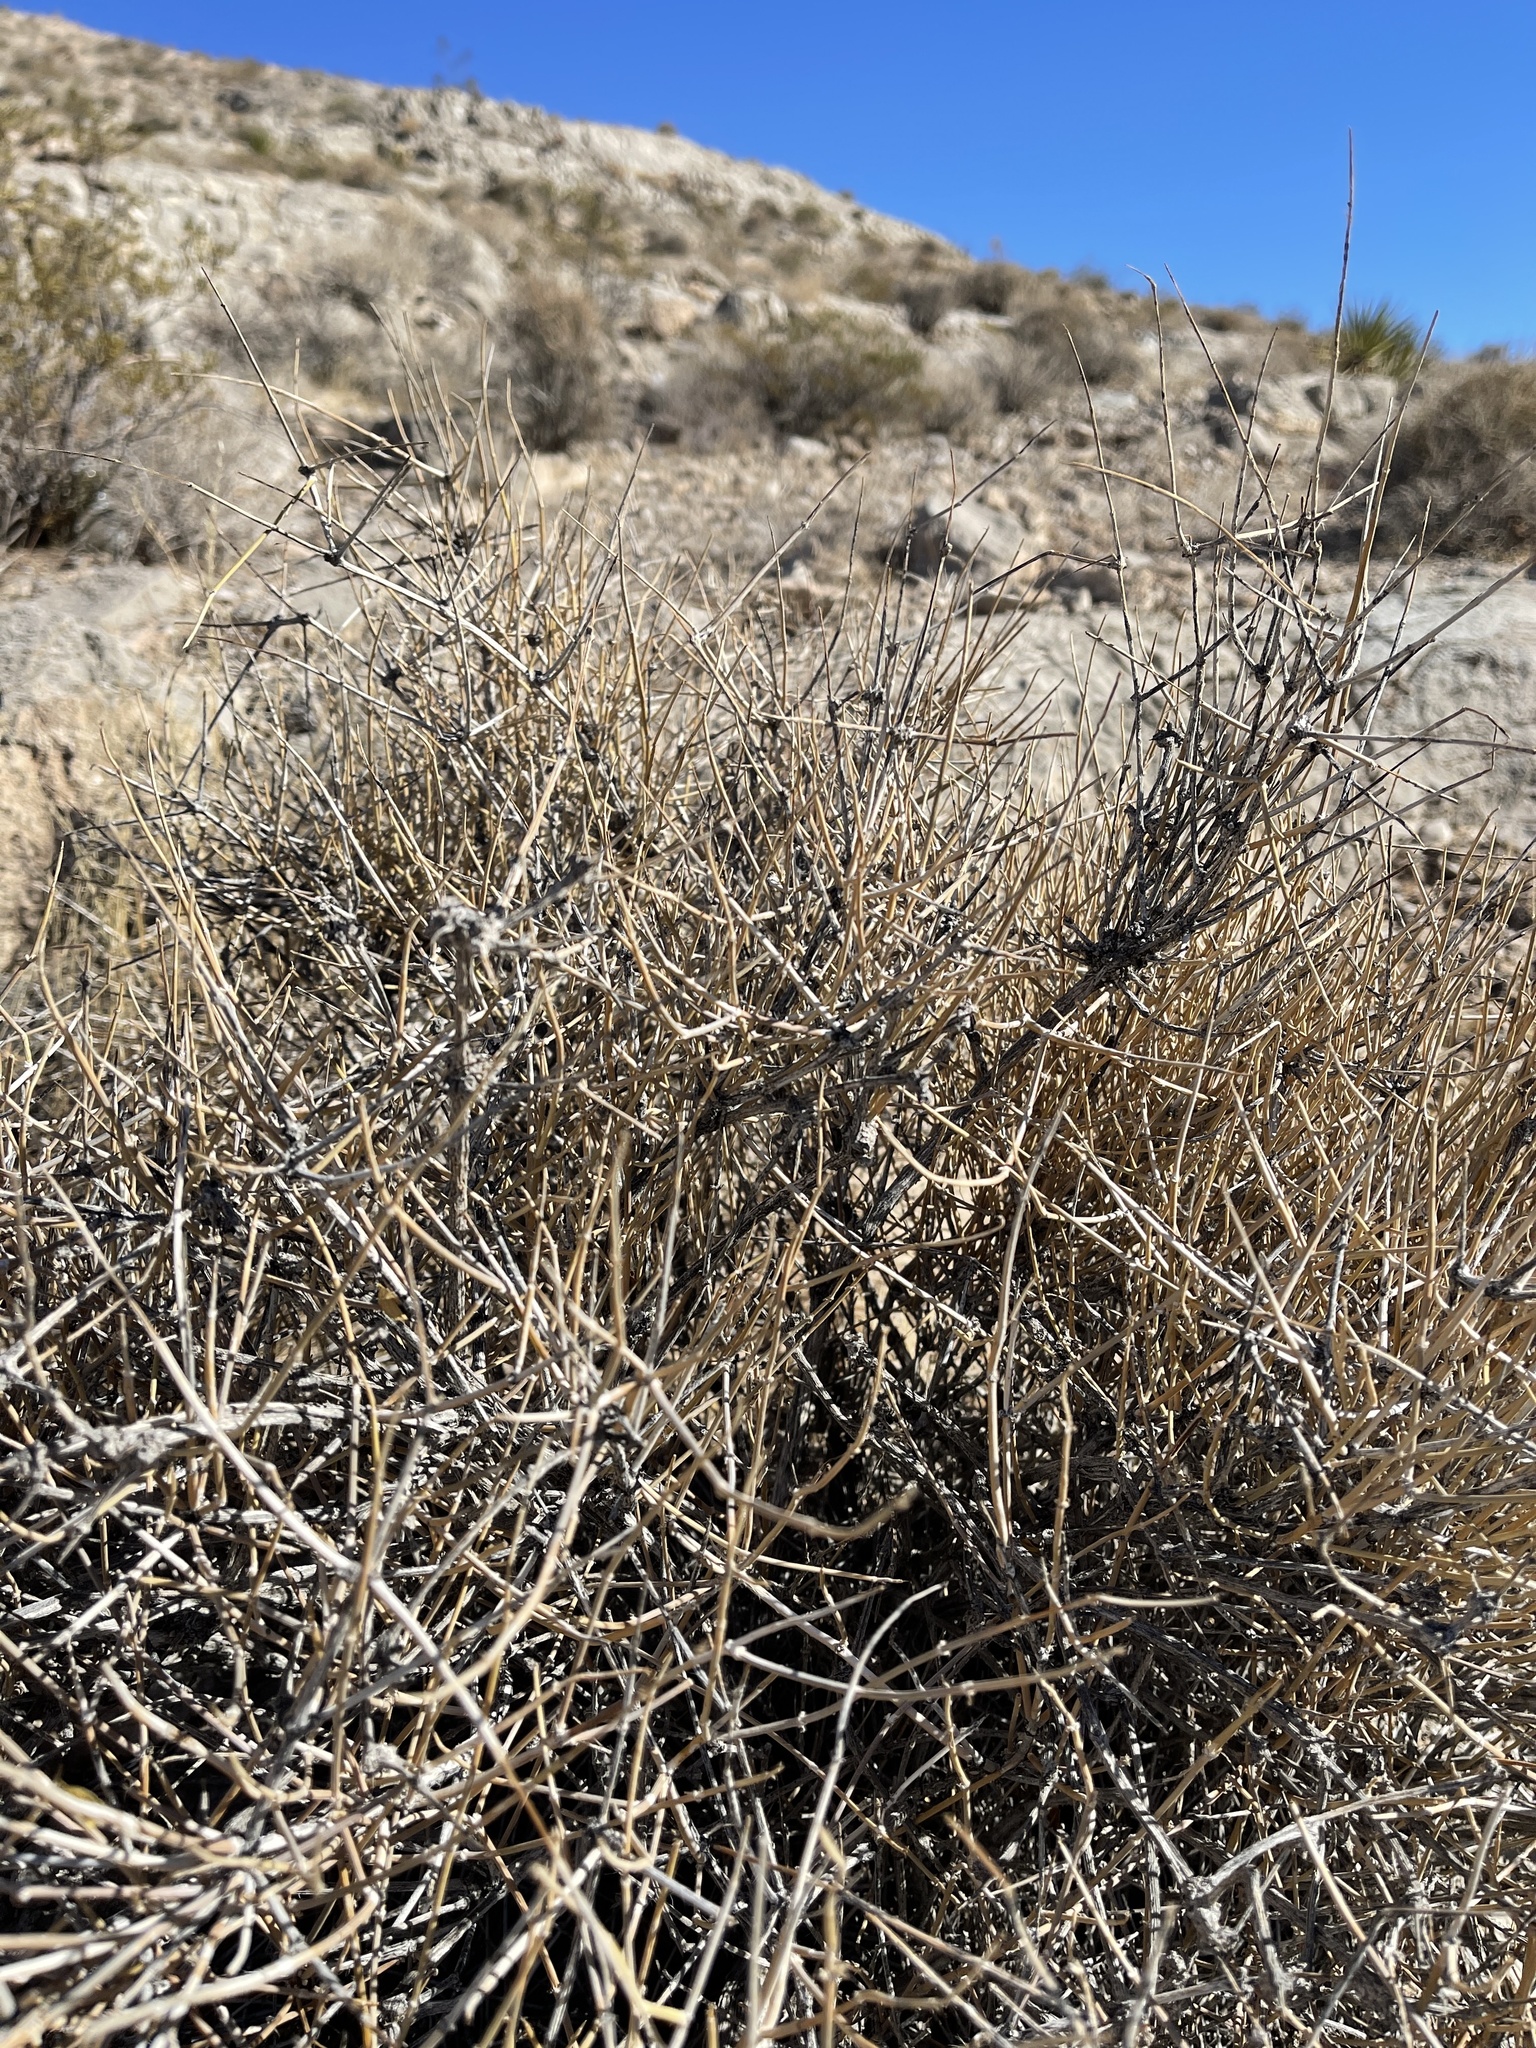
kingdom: Plantae
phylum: Tracheophyta
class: Gnetopsida
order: Ephedrales
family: Ephedraceae
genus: Ephedra
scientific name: Ephedra nevadensis
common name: Gray ephedra
